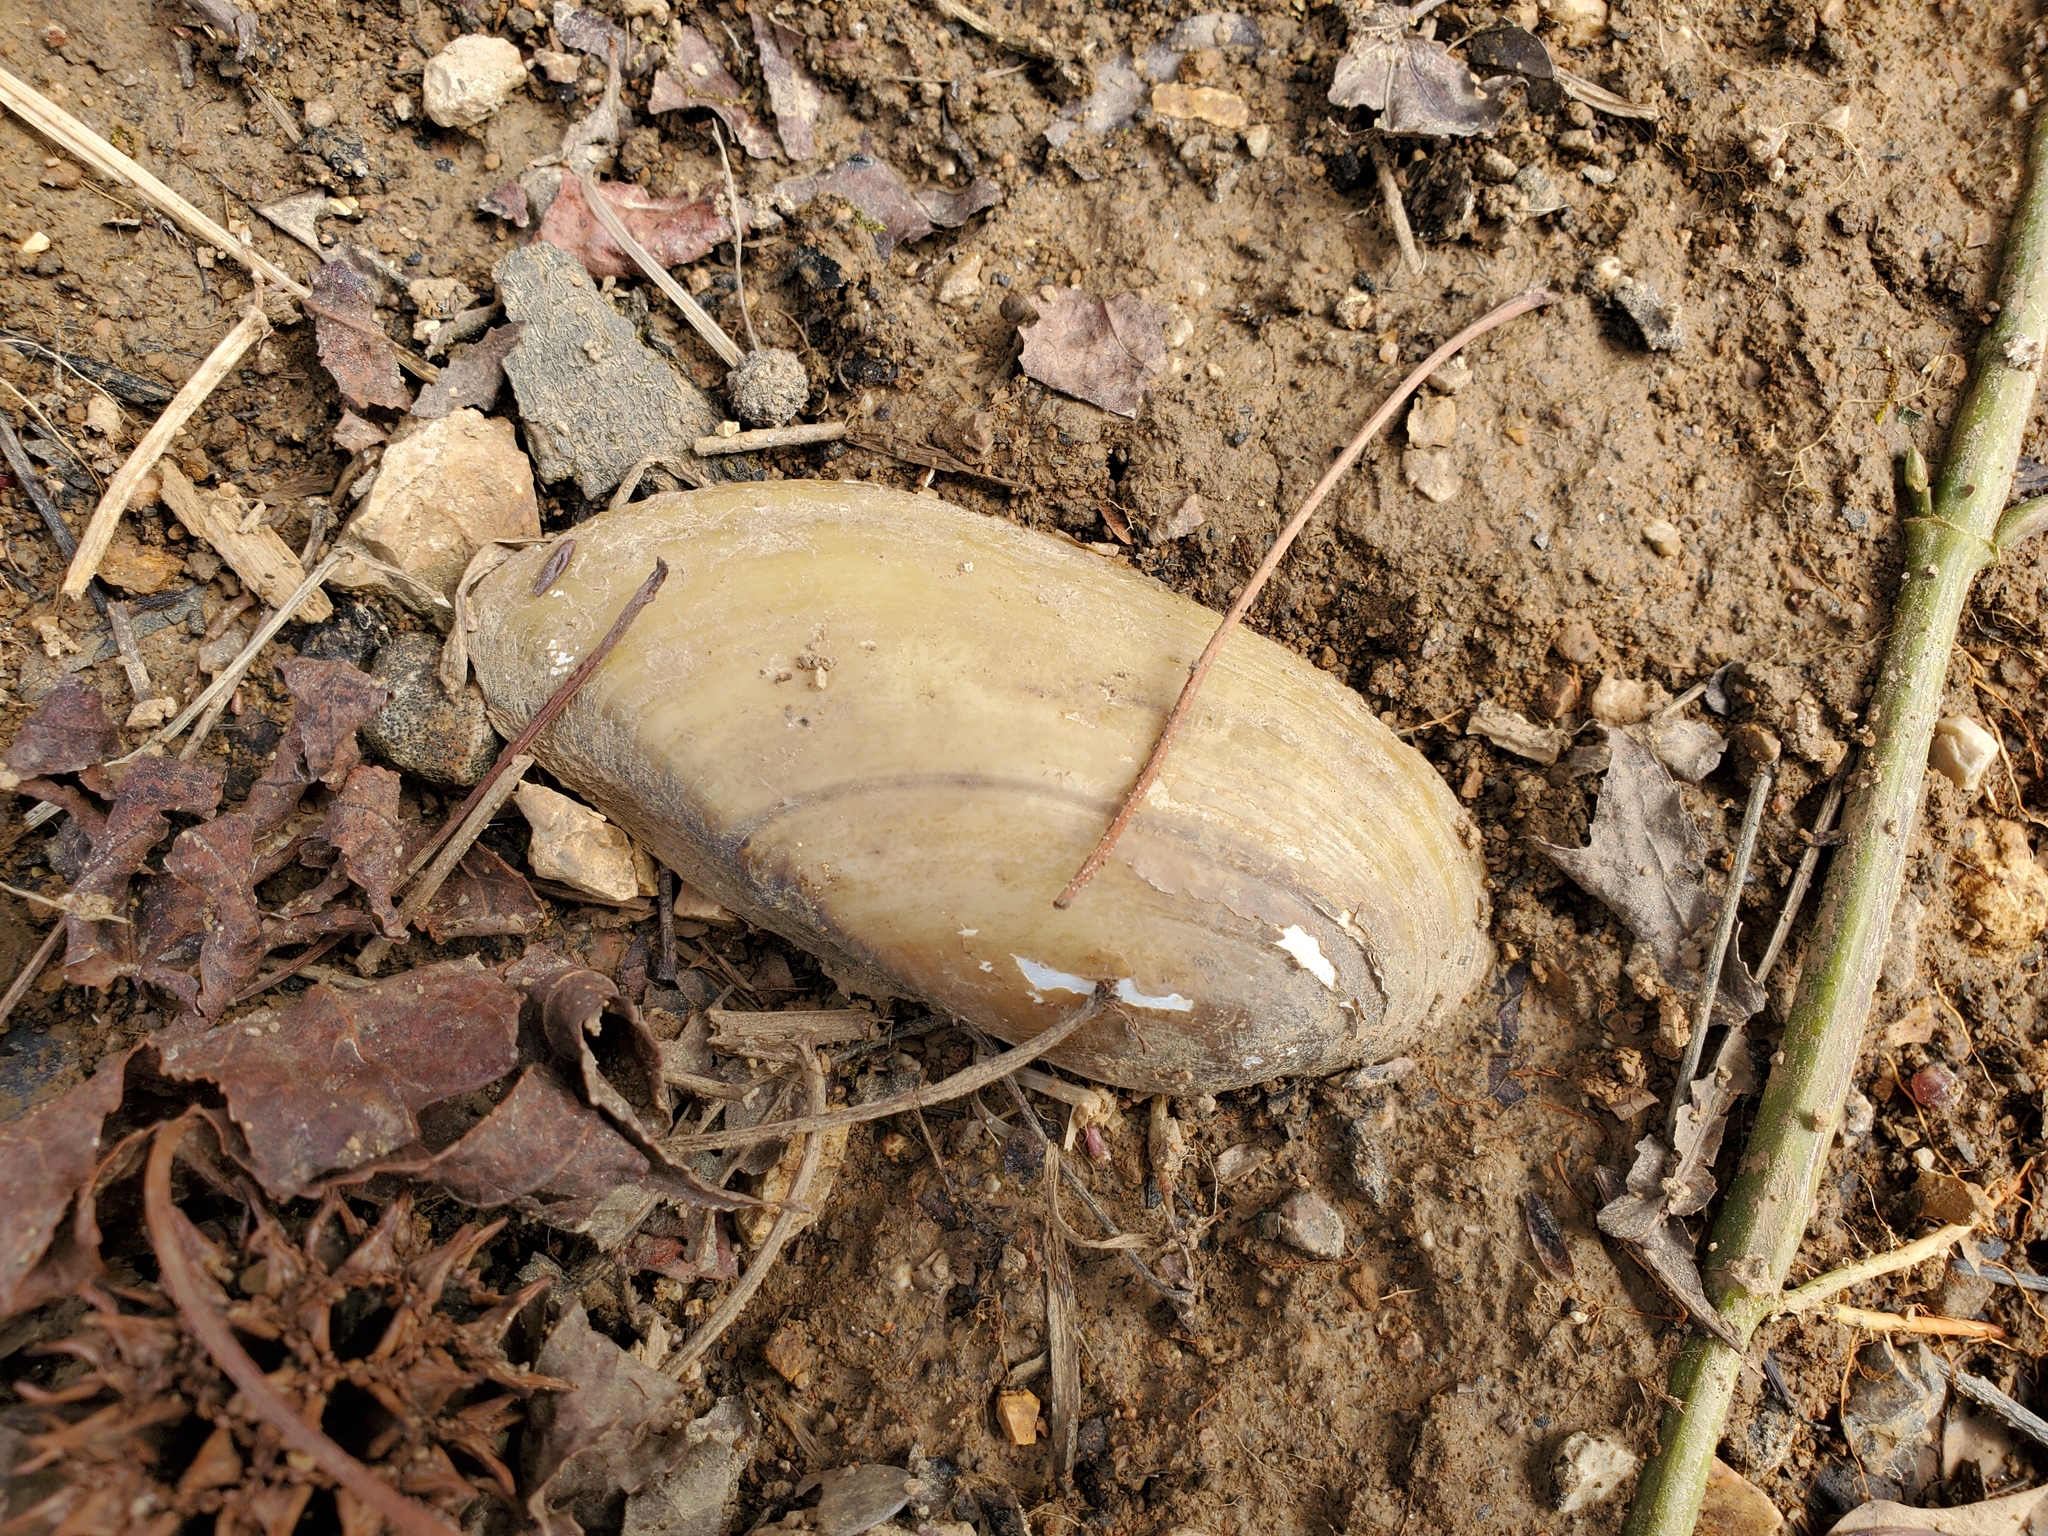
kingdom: Animalia
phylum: Mollusca
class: Bivalvia
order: Unionida
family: Unionidae
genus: Lampsilis
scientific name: Lampsilis teres
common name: Yellow sandshell
